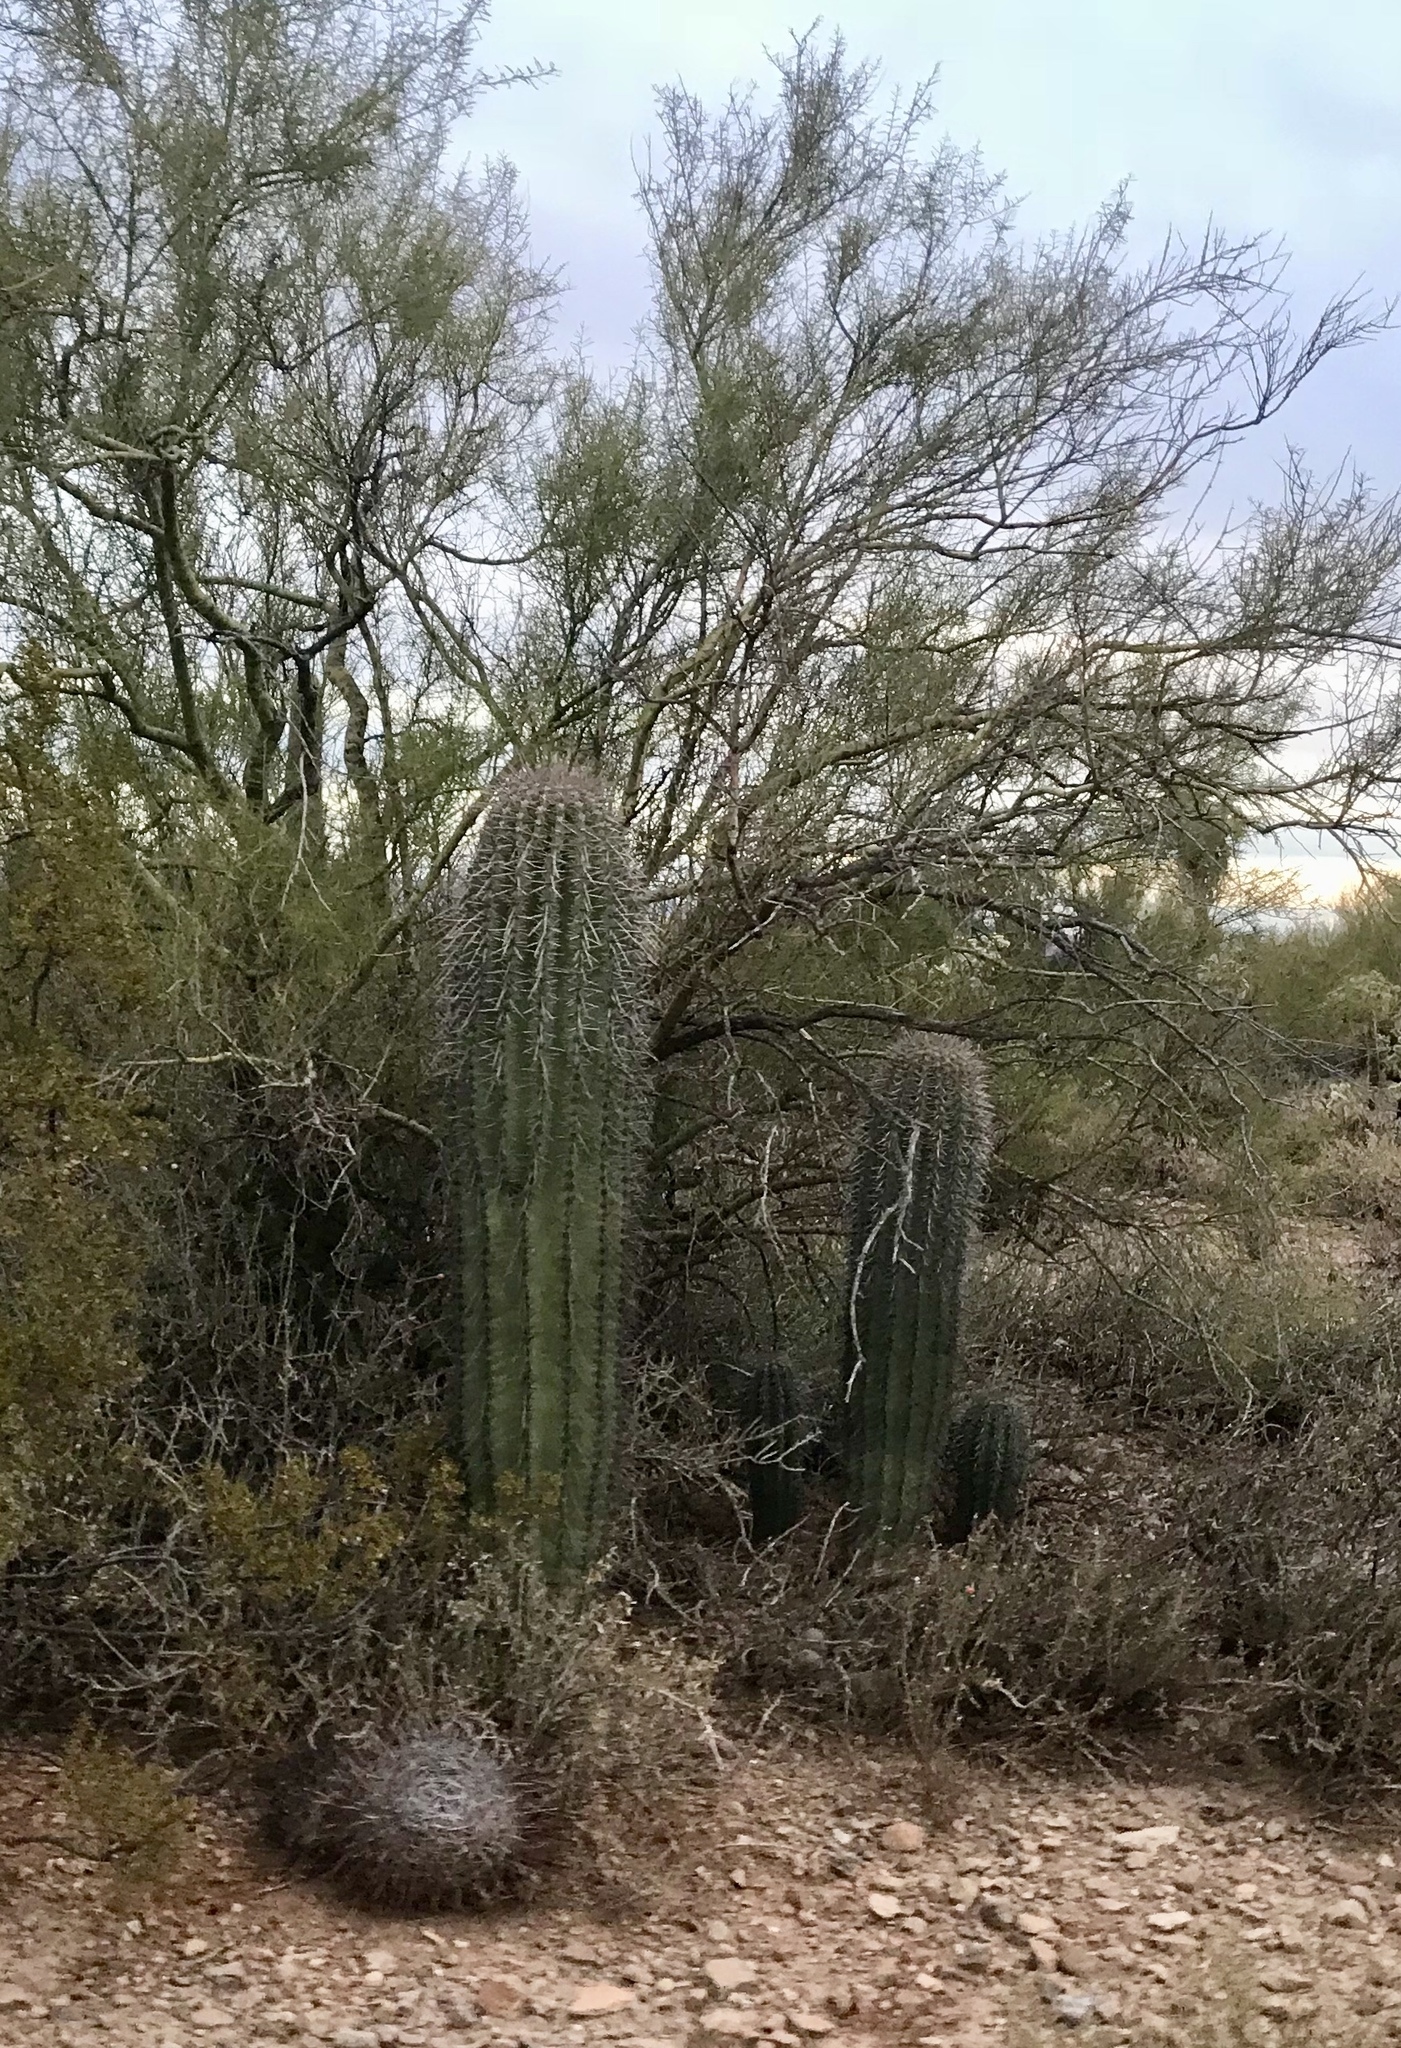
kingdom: Plantae
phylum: Tracheophyta
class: Magnoliopsida
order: Caryophyllales
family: Cactaceae
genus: Carnegiea
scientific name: Carnegiea gigantea
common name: Saguaro
